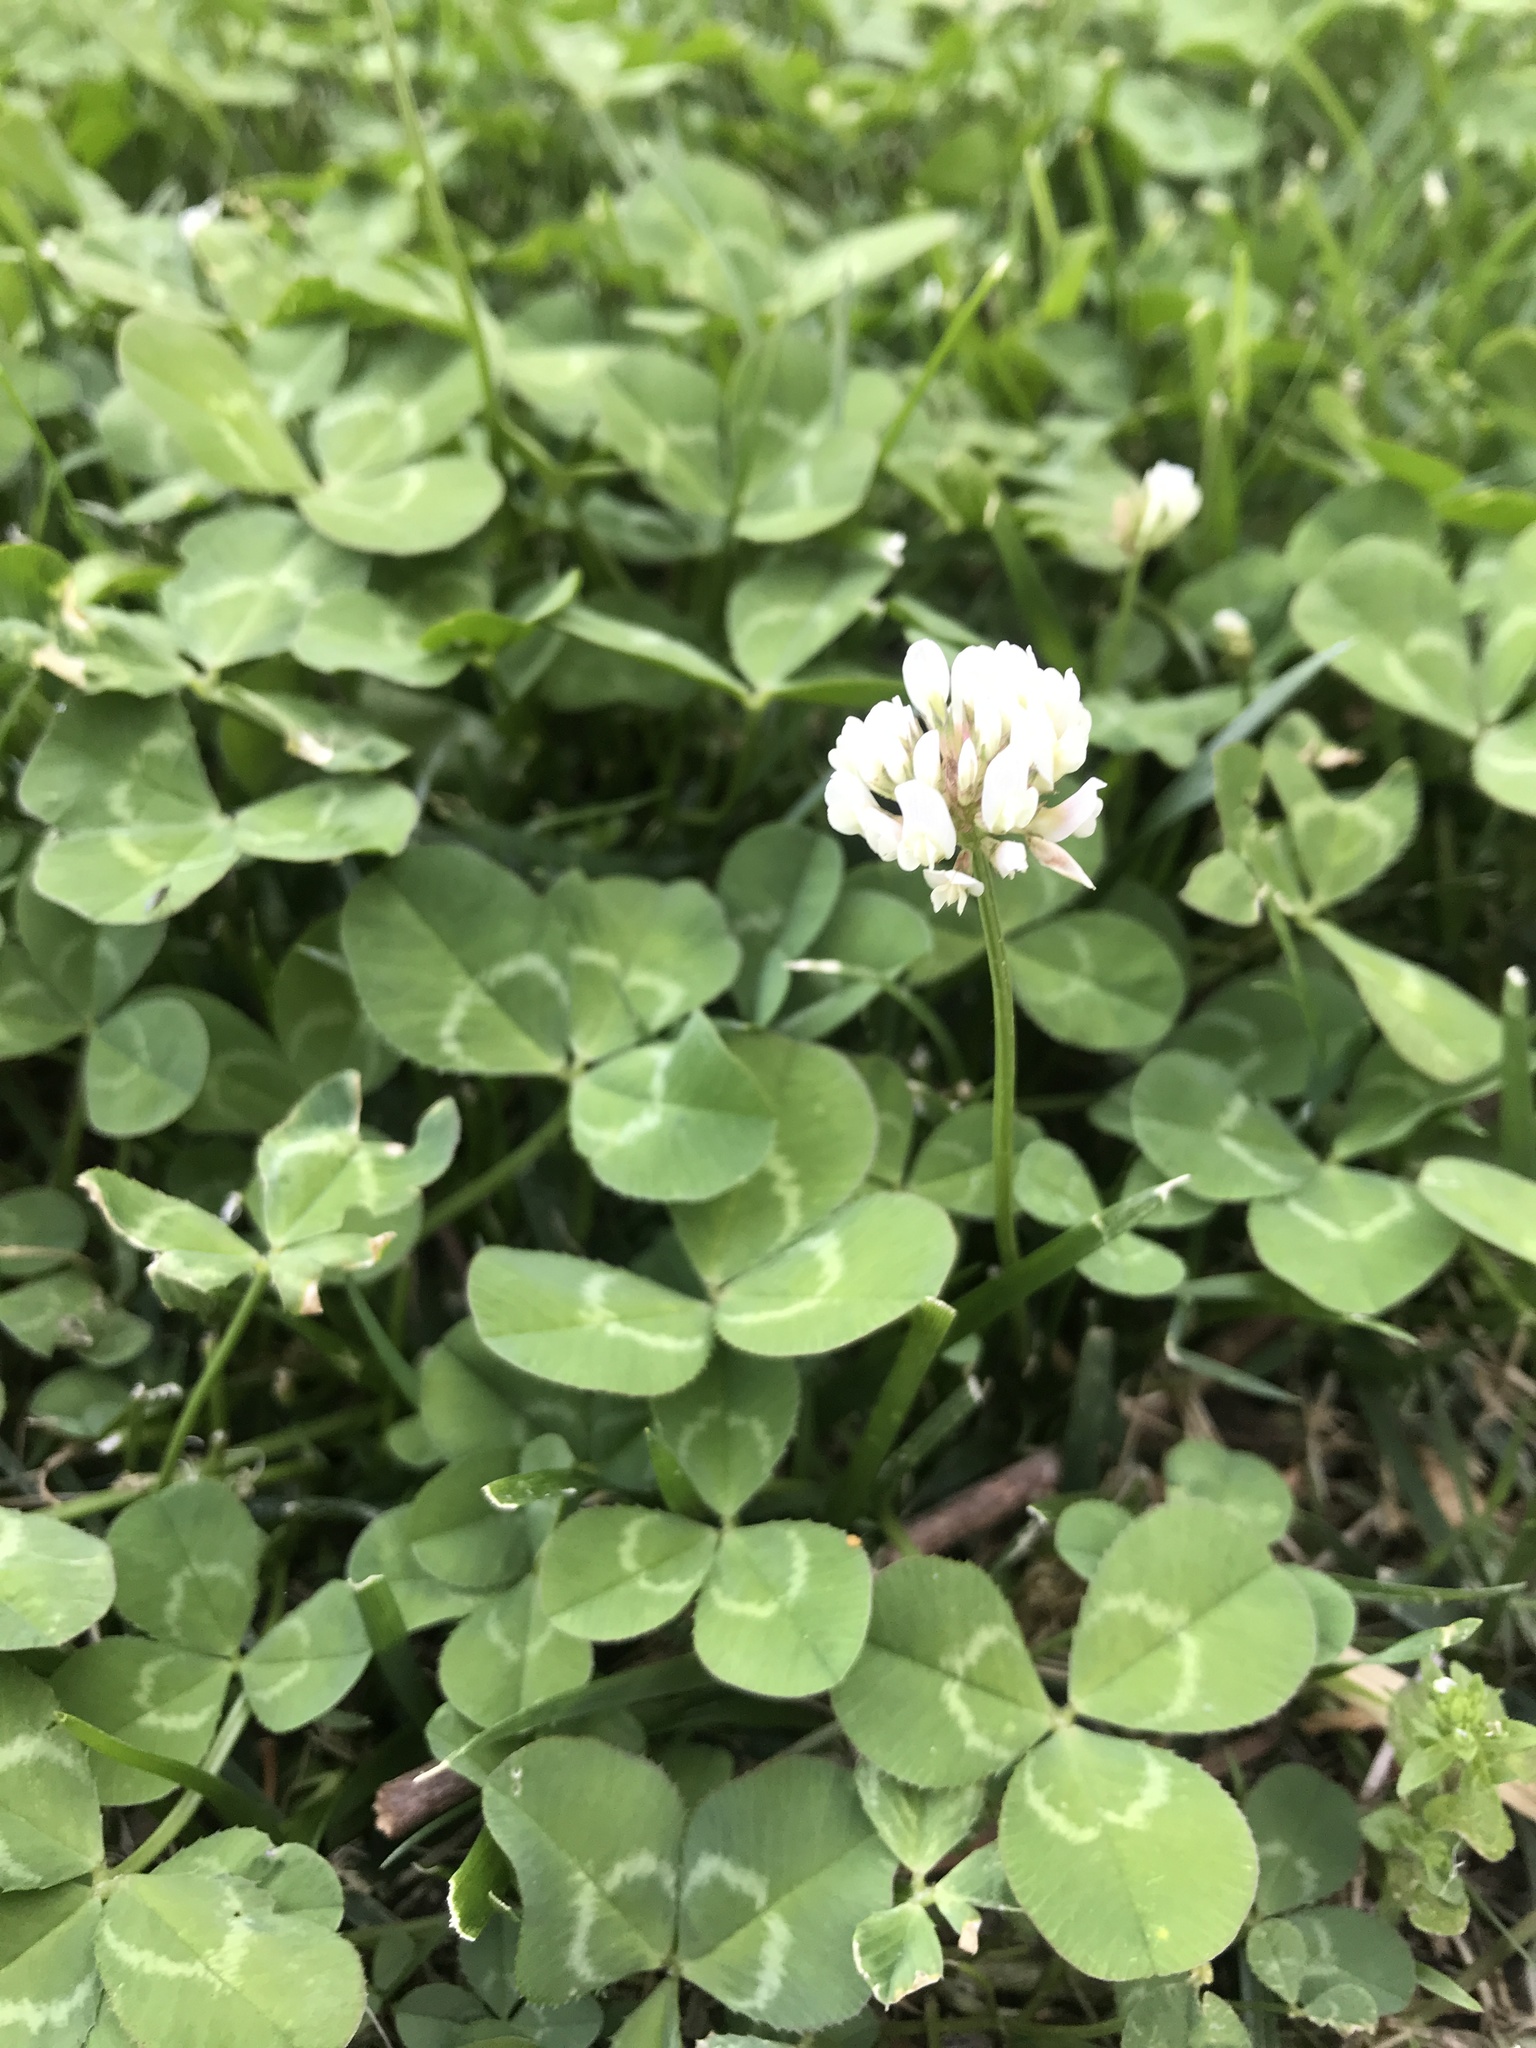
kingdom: Plantae
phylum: Tracheophyta
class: Magnoliopsida
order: Fabales
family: Fabaceae
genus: Trifolium
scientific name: Trifolium repens
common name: White clover
